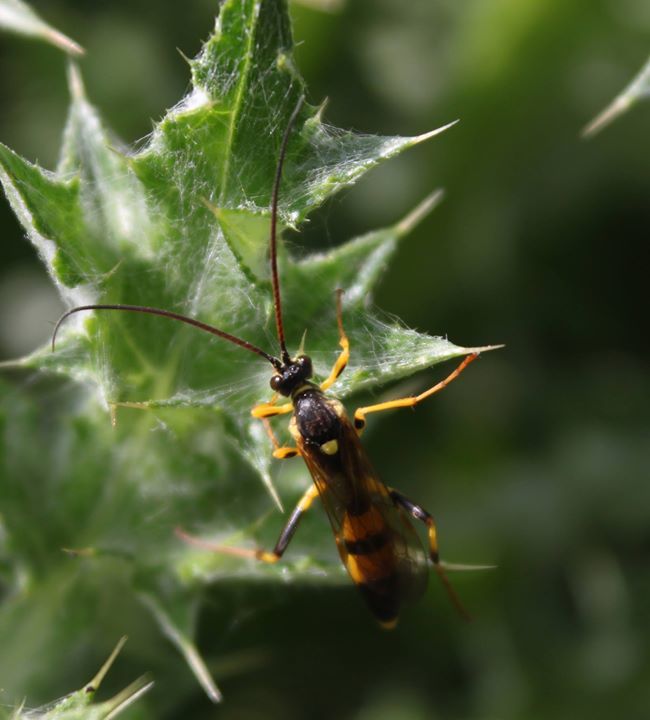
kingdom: Animalia
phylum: Arthropoda
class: Insecta
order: Hymenoptera
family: Ichneumonidae
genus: Amblyteles
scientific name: Amblyteles armatorius
